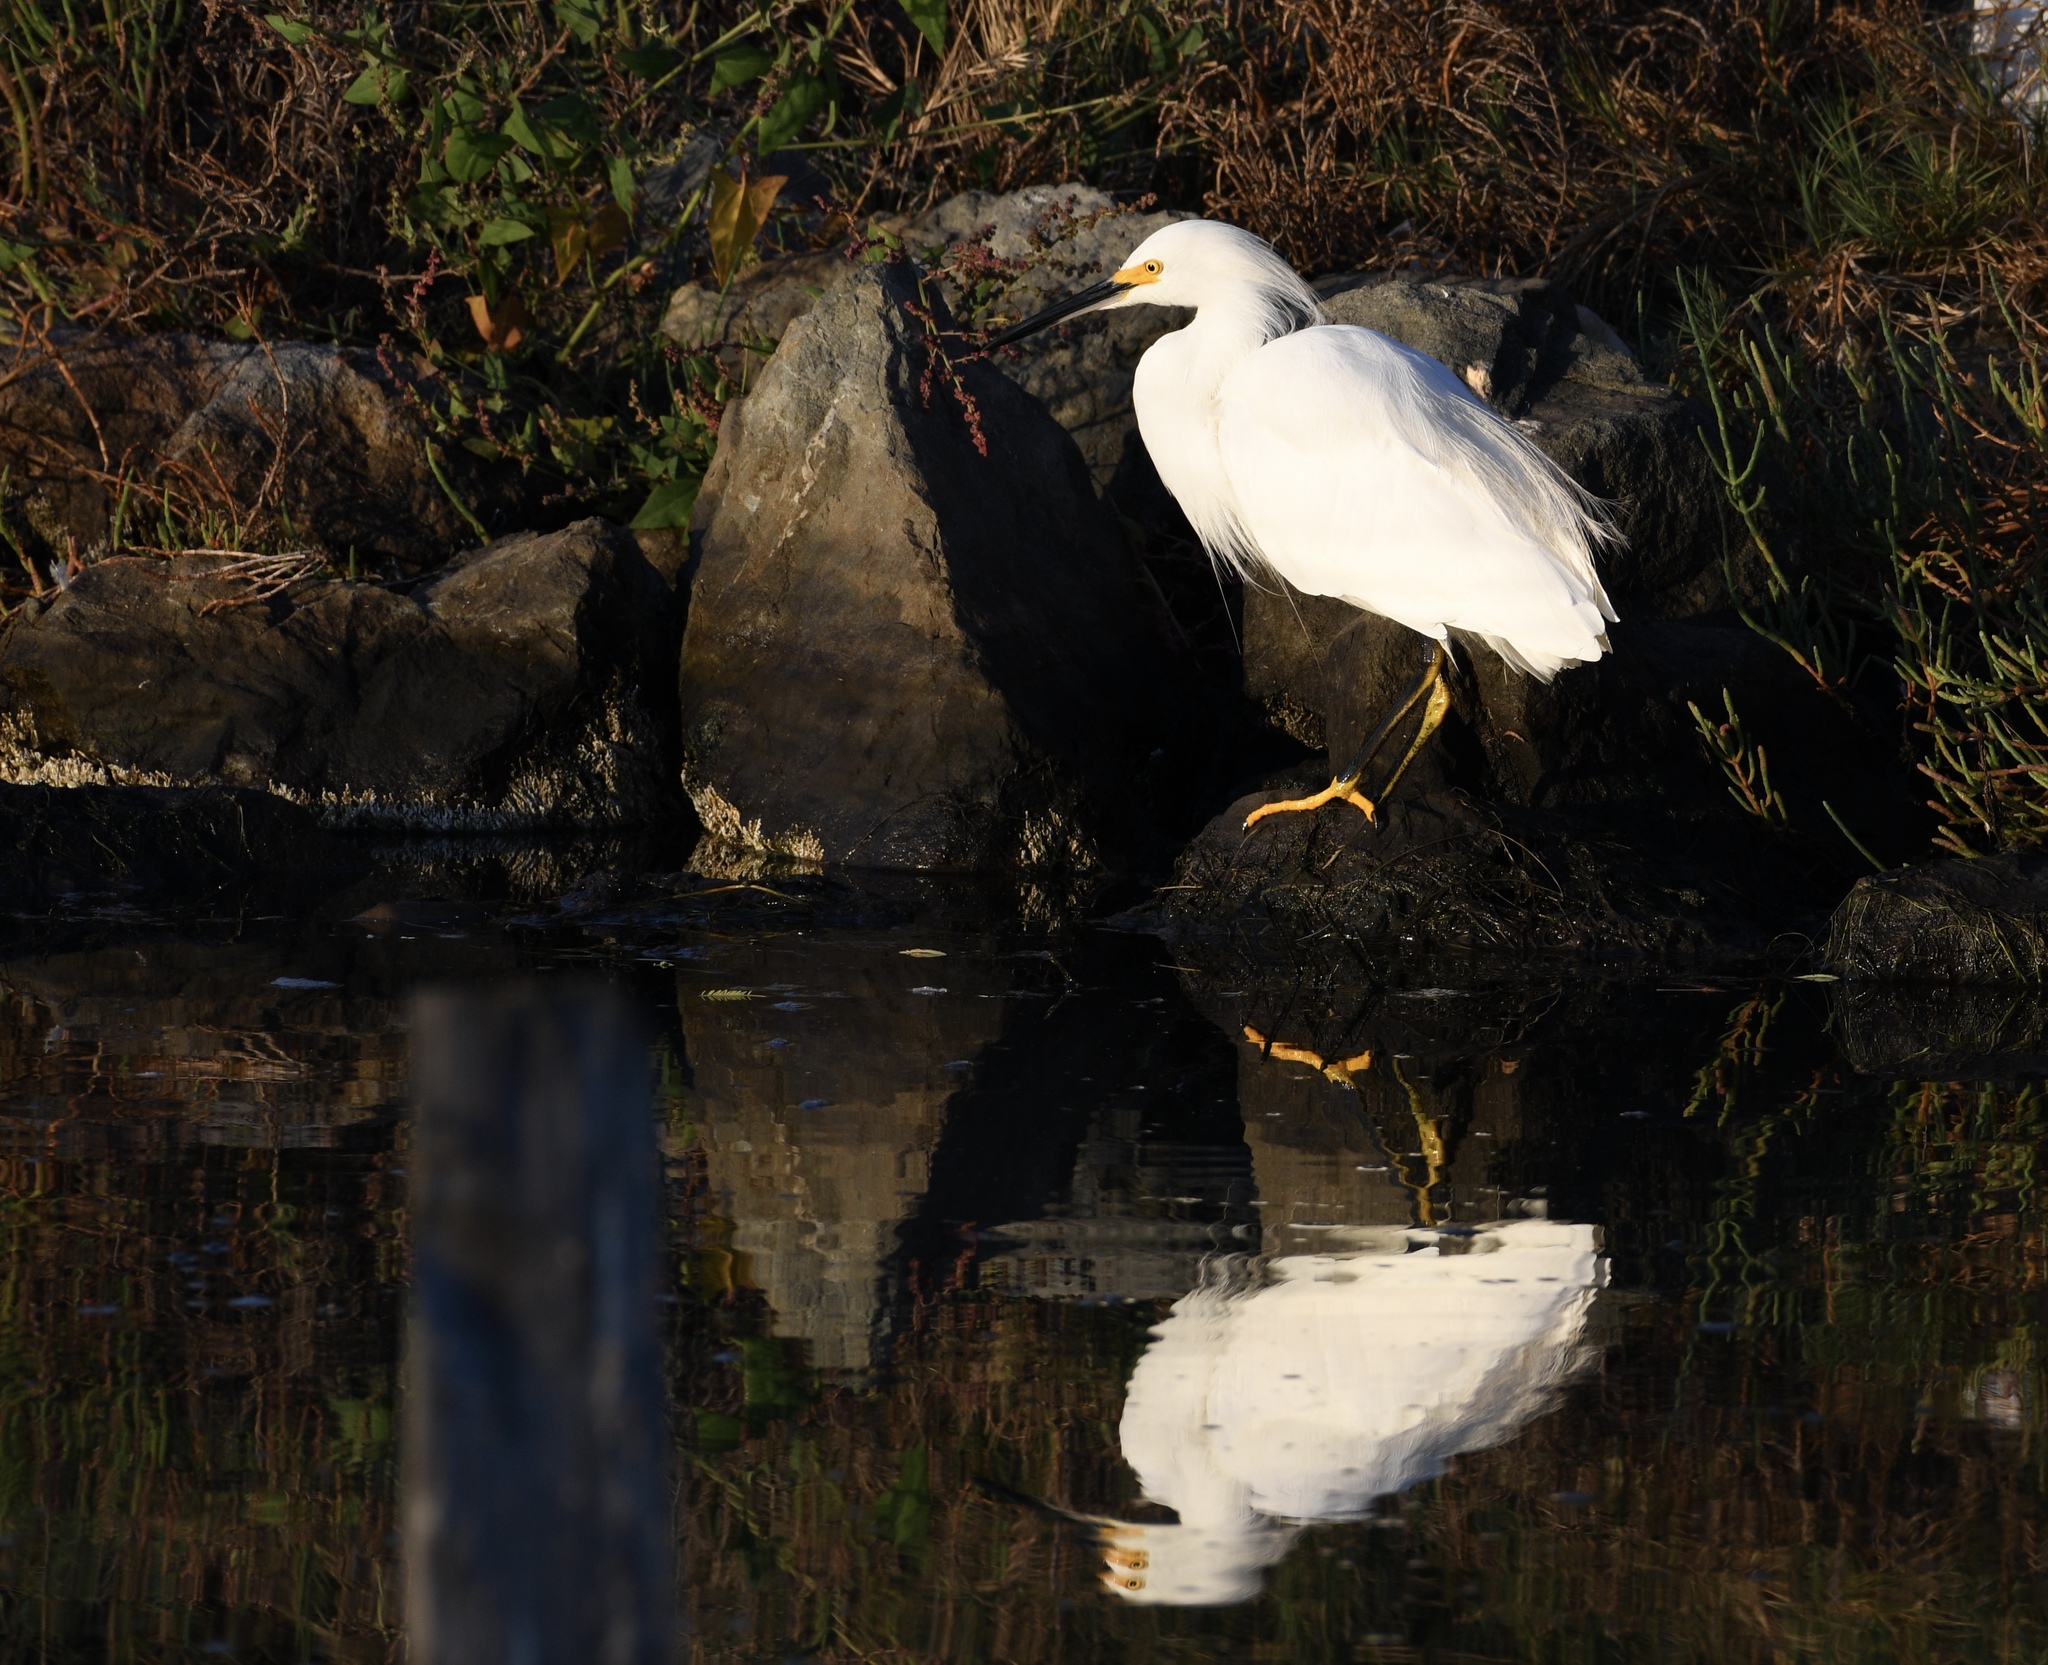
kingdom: Animalia
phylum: Chordata
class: Aves
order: Pelecaniformes
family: Ardeidae
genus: Egretta
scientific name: Egretta thula
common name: Snowy egret
